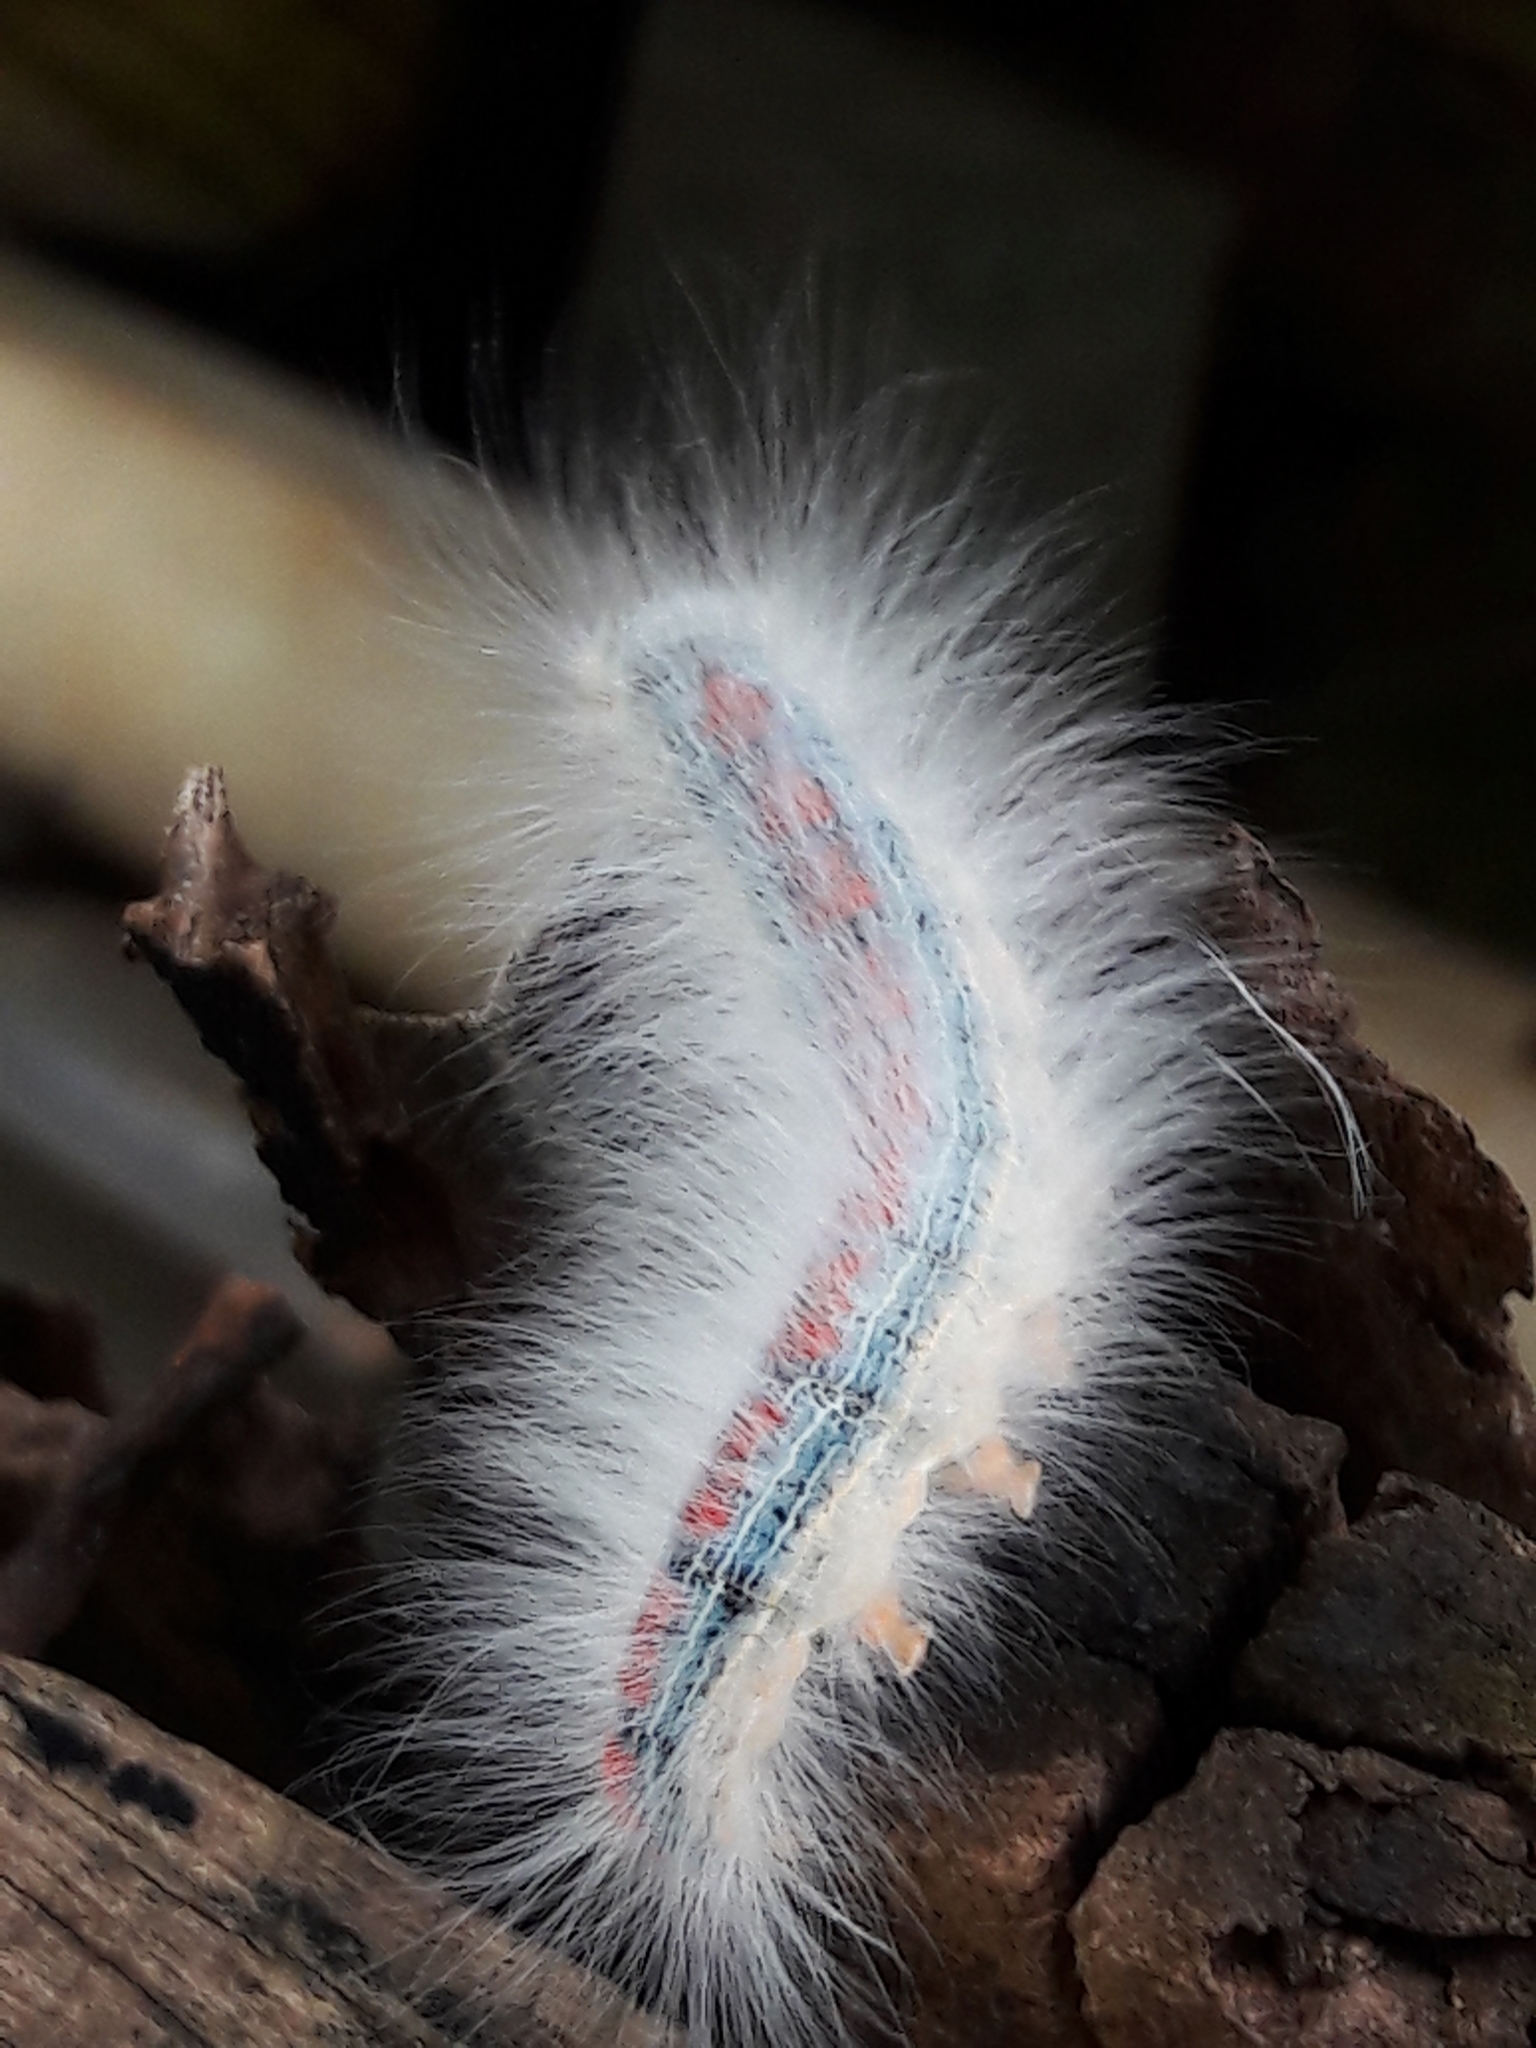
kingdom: Animalia
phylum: Arthropoda
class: Insecta
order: Lepidoptera
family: Lasiocampidae
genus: Euglyphis
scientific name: Euglyphis aenegia
